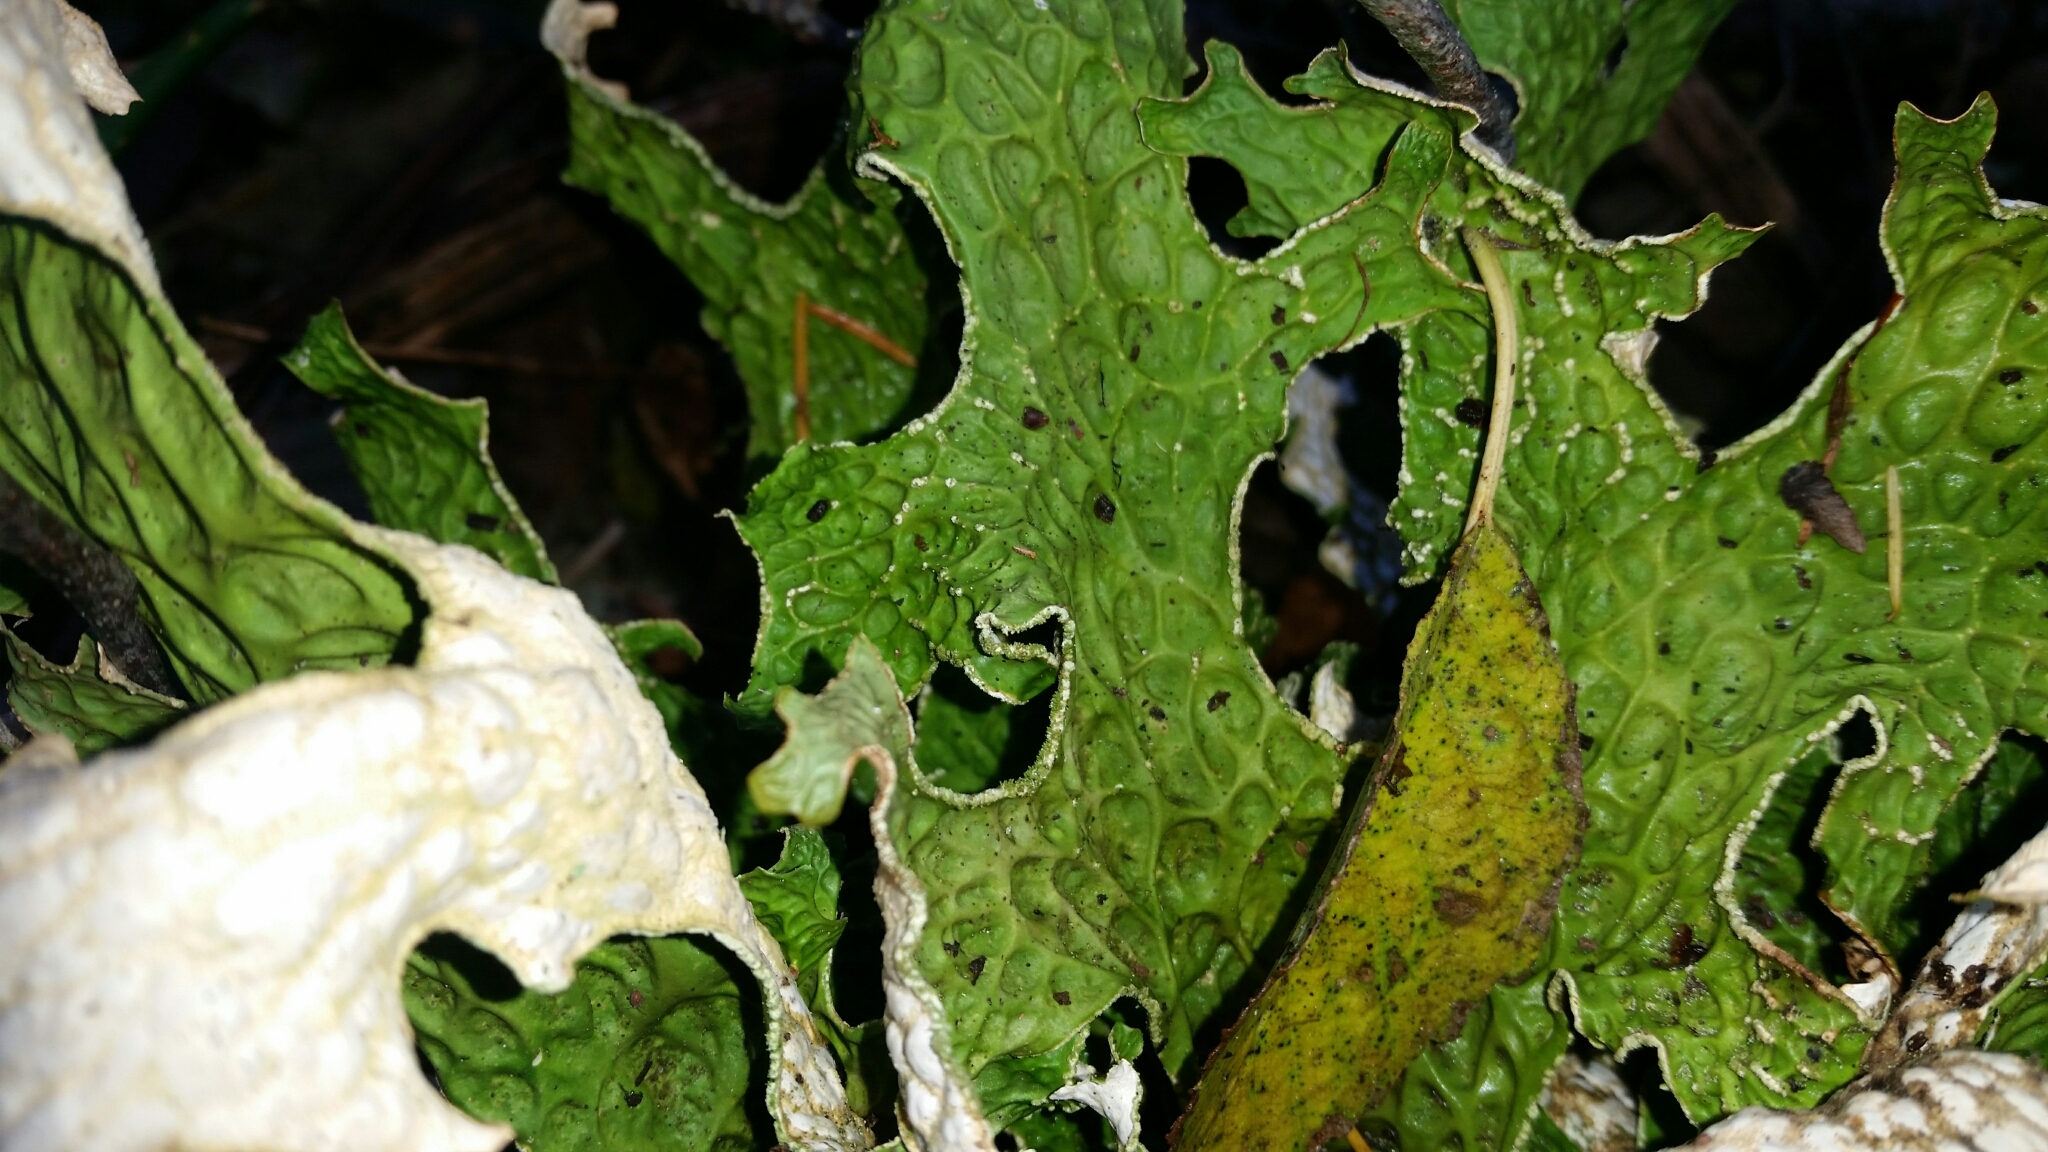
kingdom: Fungi
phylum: Ascomycota
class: Lecanoromycetes
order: Peltigerales
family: Lobariaceae
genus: Lobaria
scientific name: Lobaria pulmonaria
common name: Lungwort
